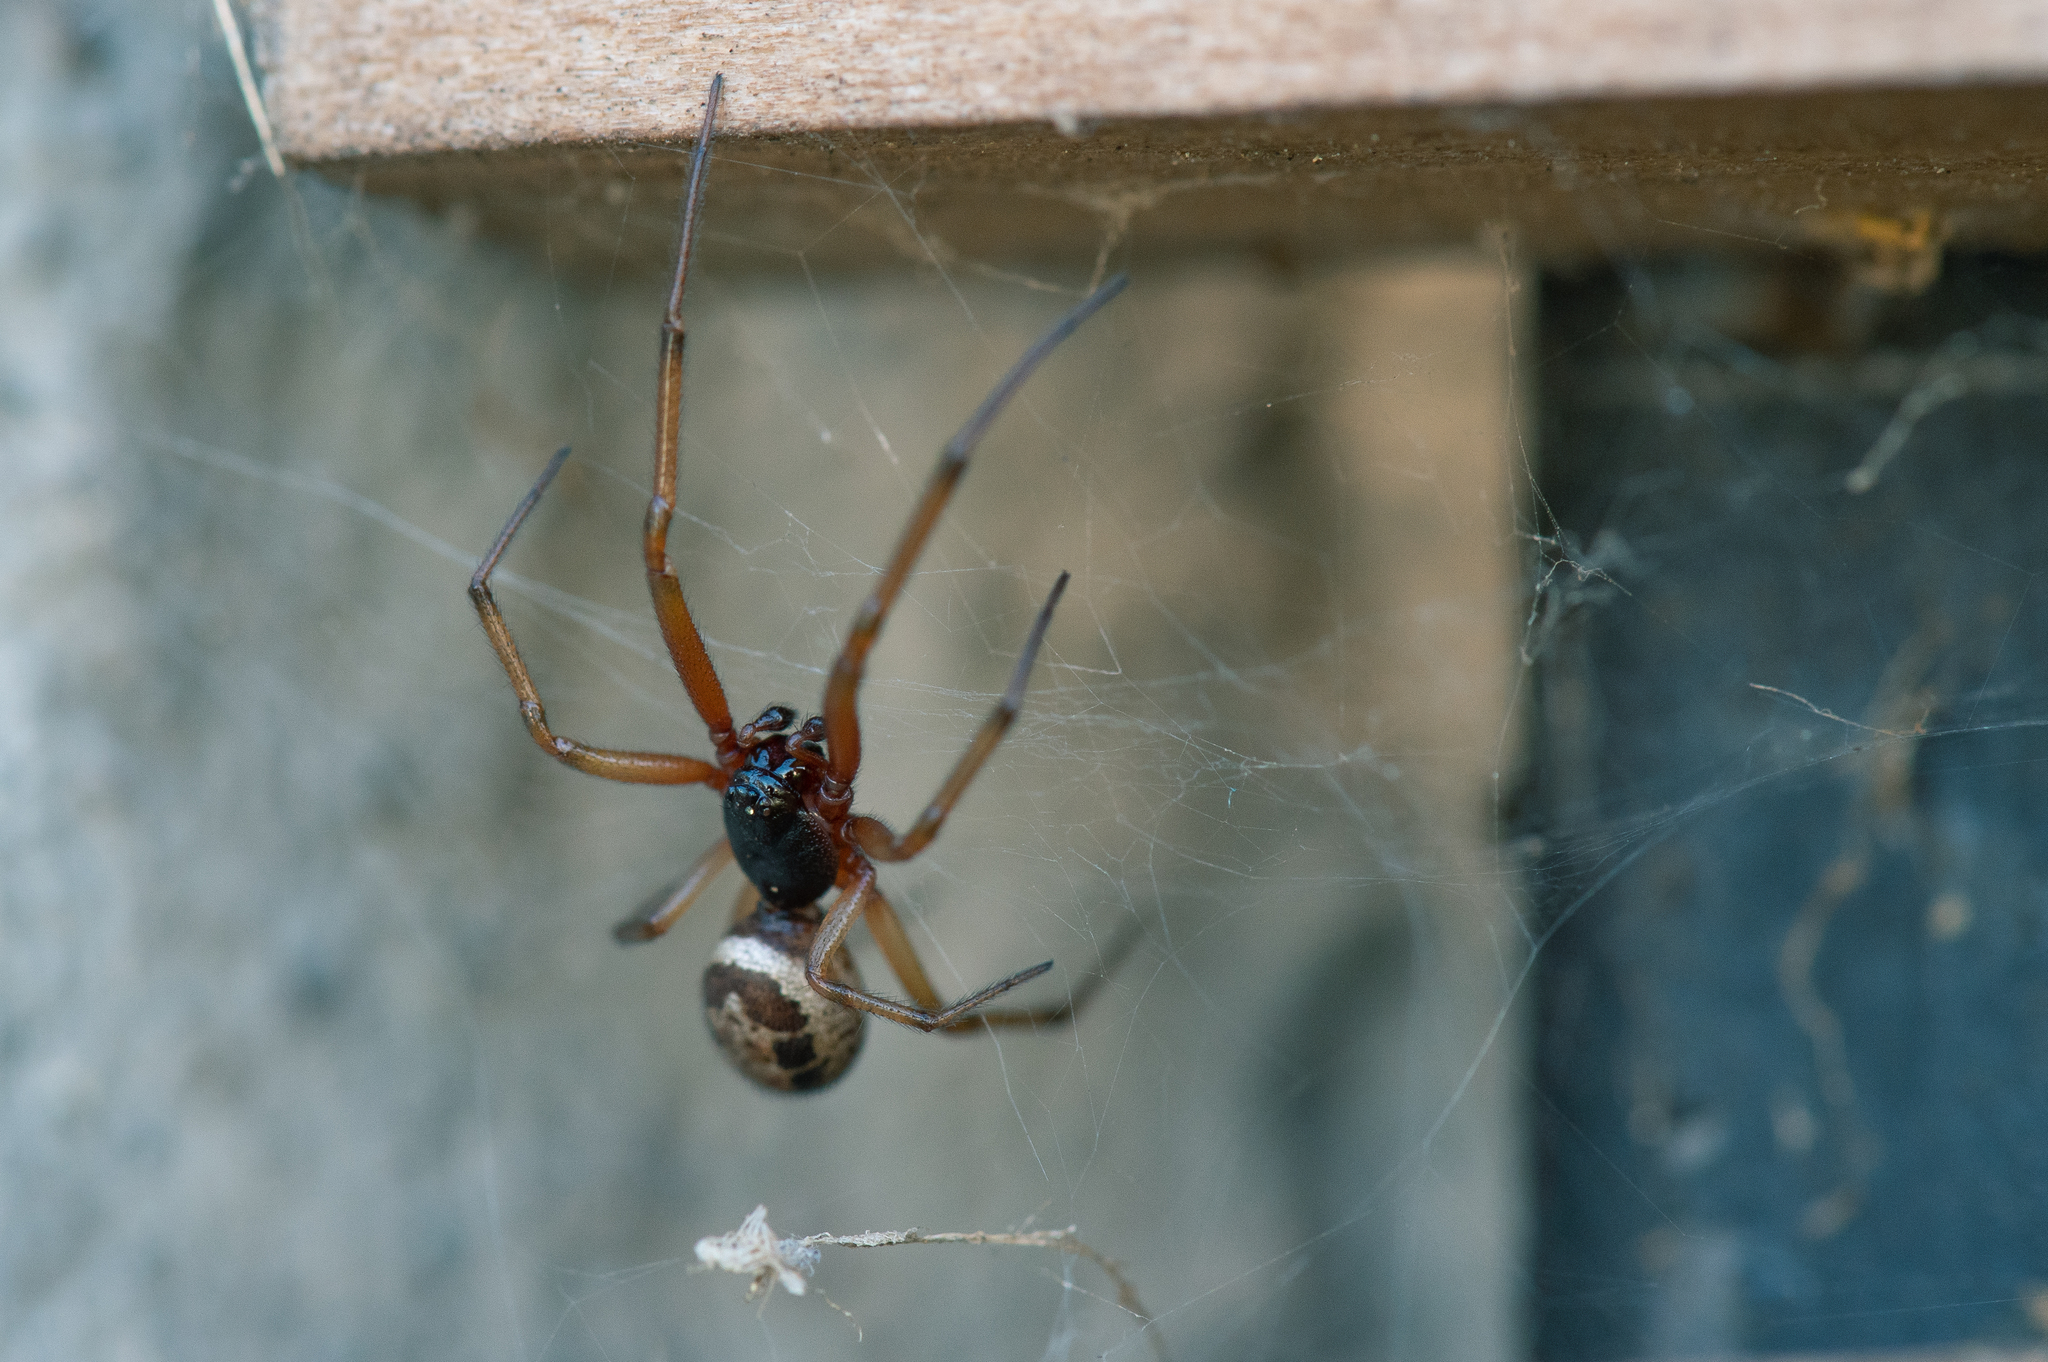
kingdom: Animalia
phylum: Arthropoda
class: Arachnida
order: Araneae
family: Theridiidae
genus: Steatoda
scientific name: Steatoda nobilis
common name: Cobweb weaver
